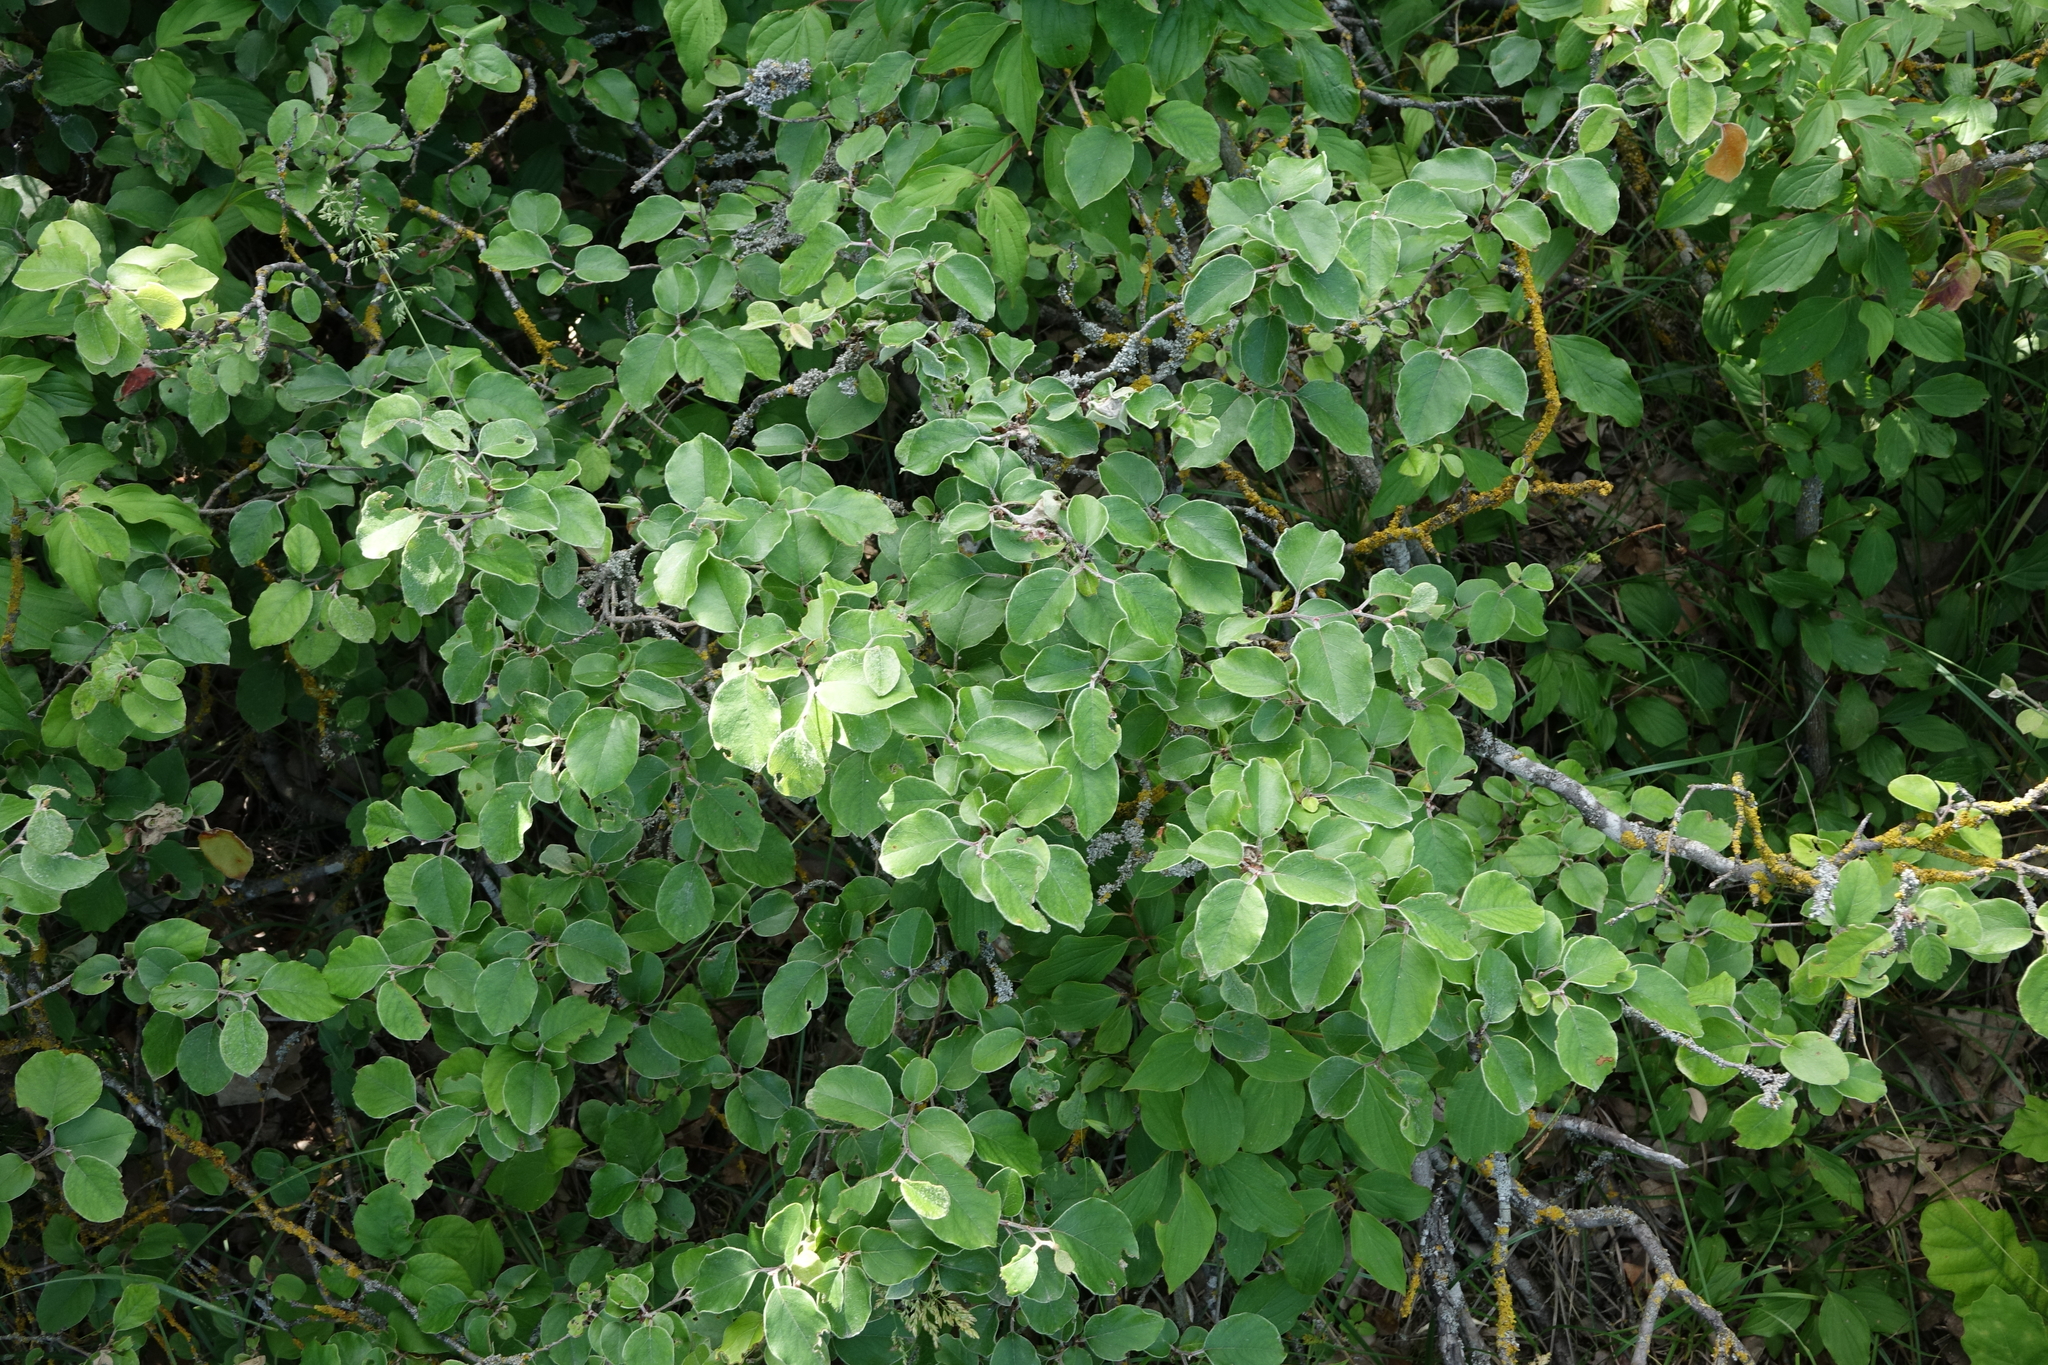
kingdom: Plantae
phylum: Tracheophyta
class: Magnoliopsida
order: Rosales
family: Rosaceae
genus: Cydonia
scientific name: Cydonia oblonga
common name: Quince
